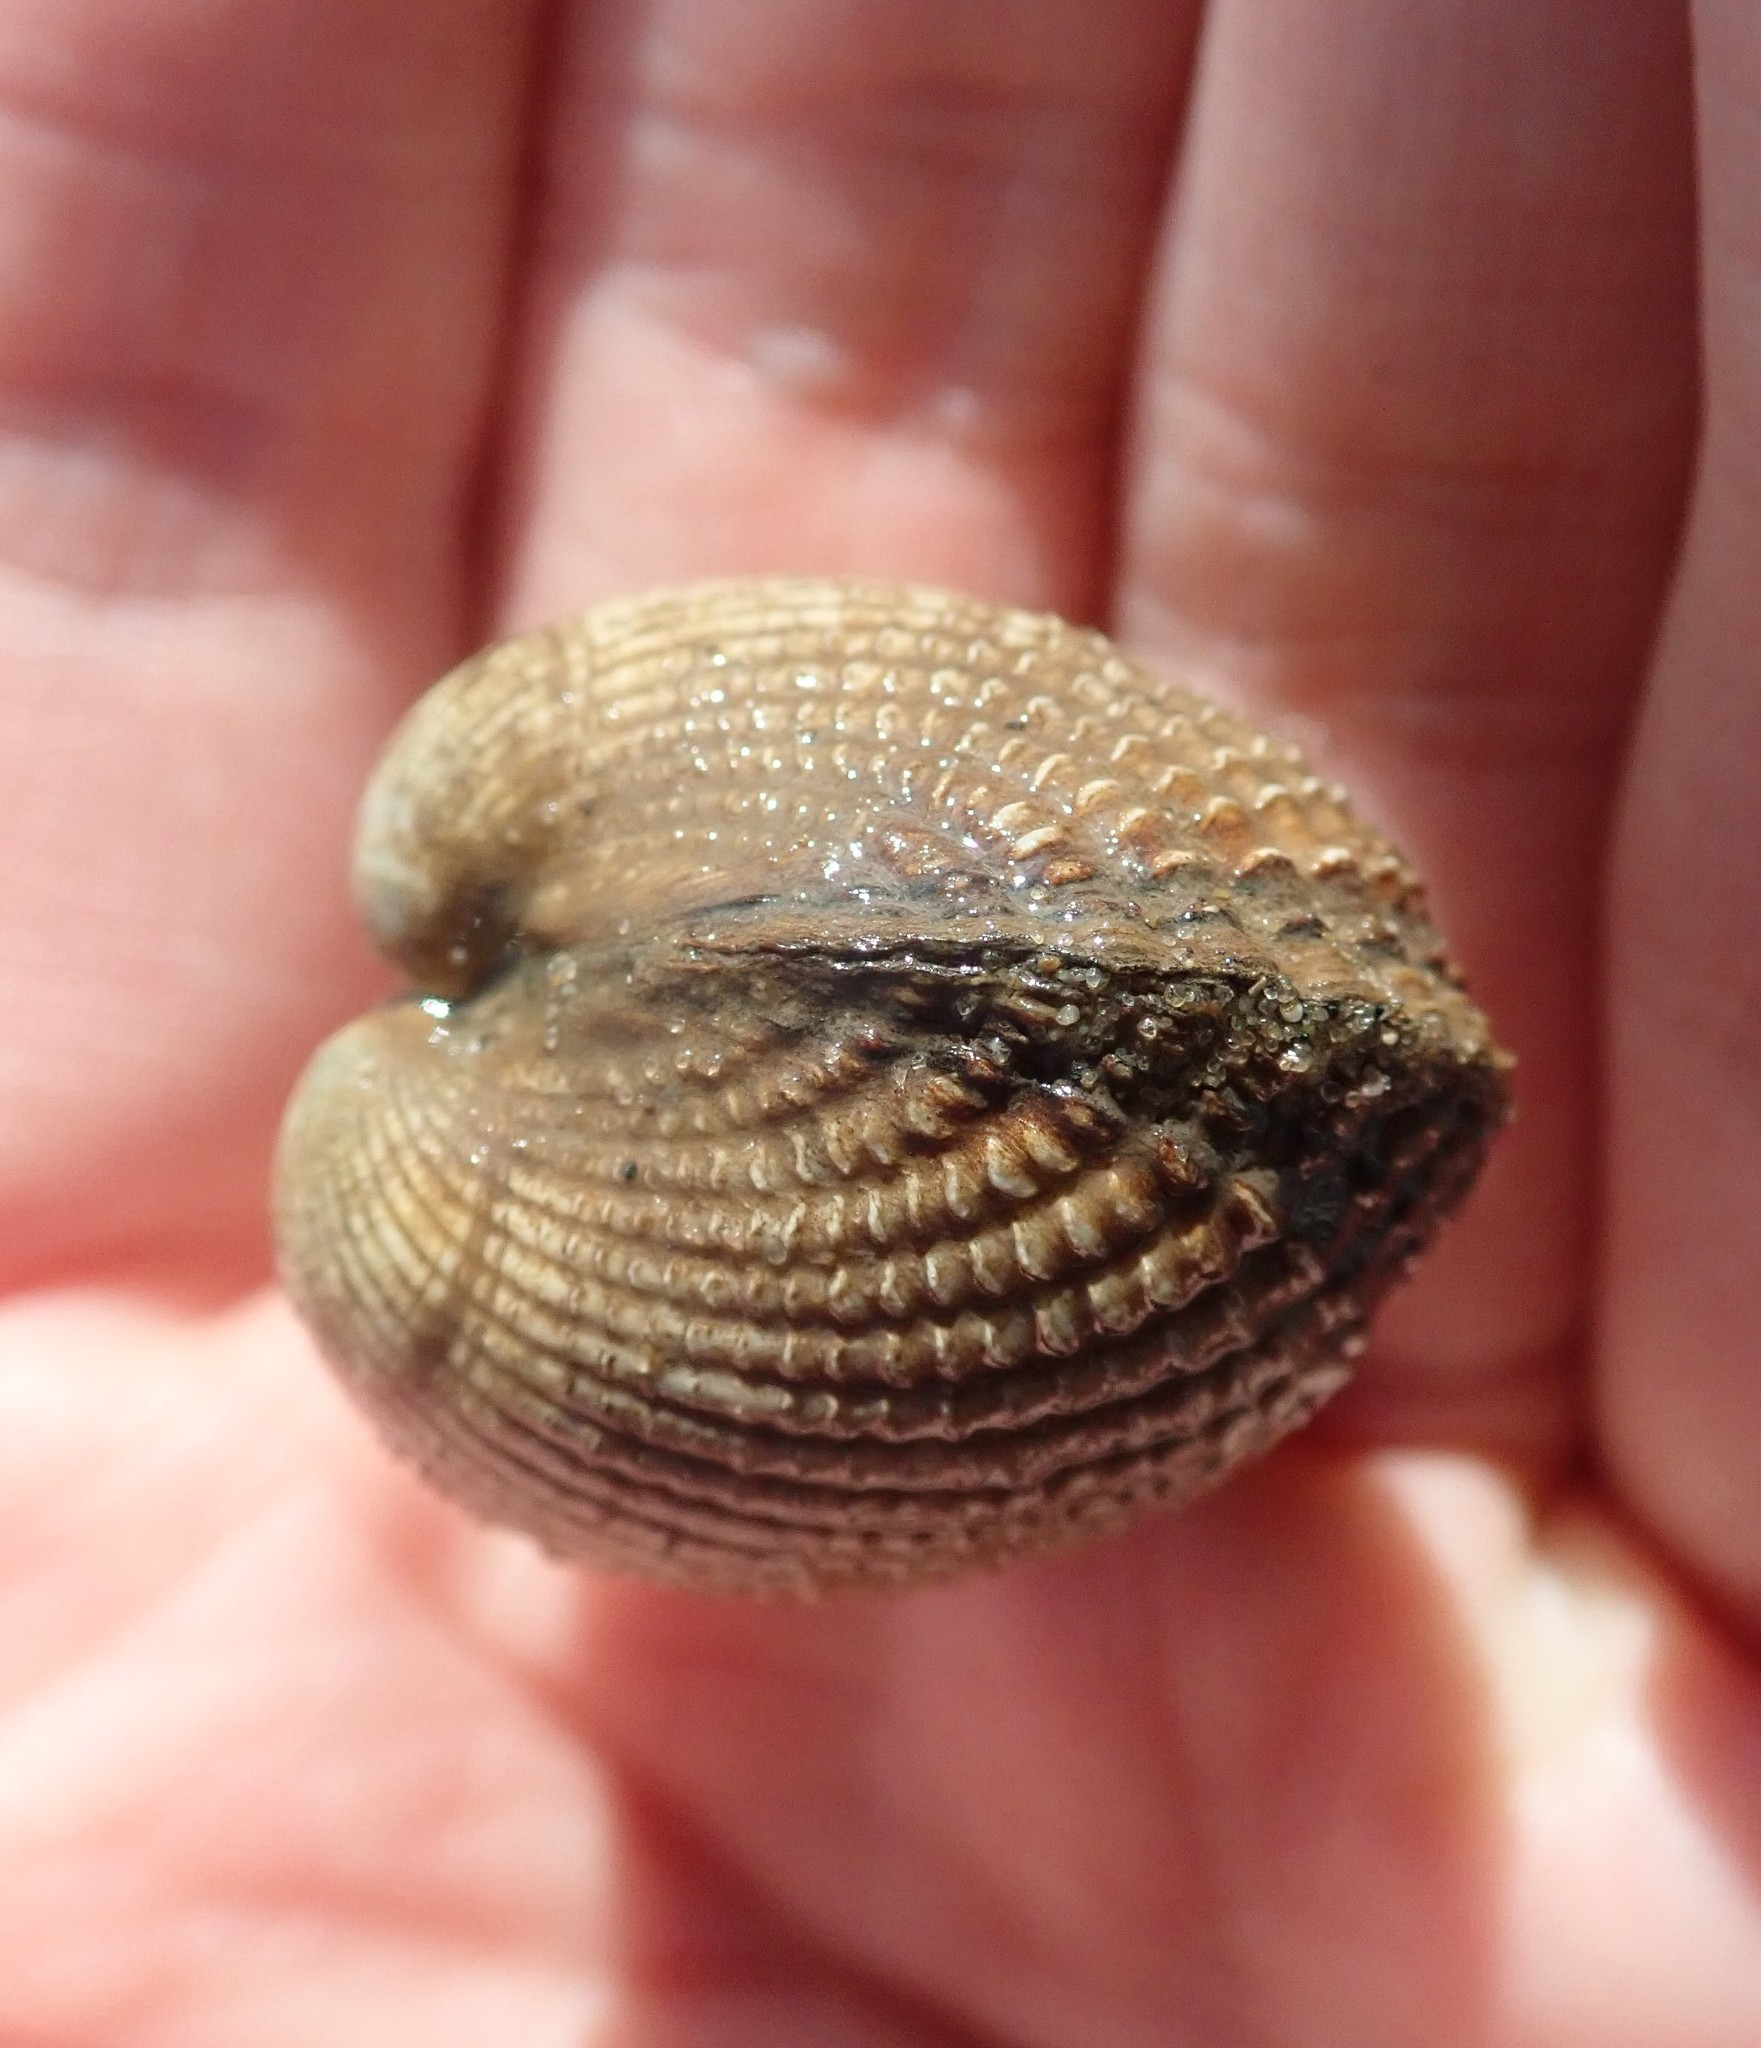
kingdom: Animalia
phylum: Mollusca
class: Bivalvia
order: Cardiida
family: Cardiidae
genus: Cerastoderma
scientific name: Cerastoderma edule
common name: Common cockle
